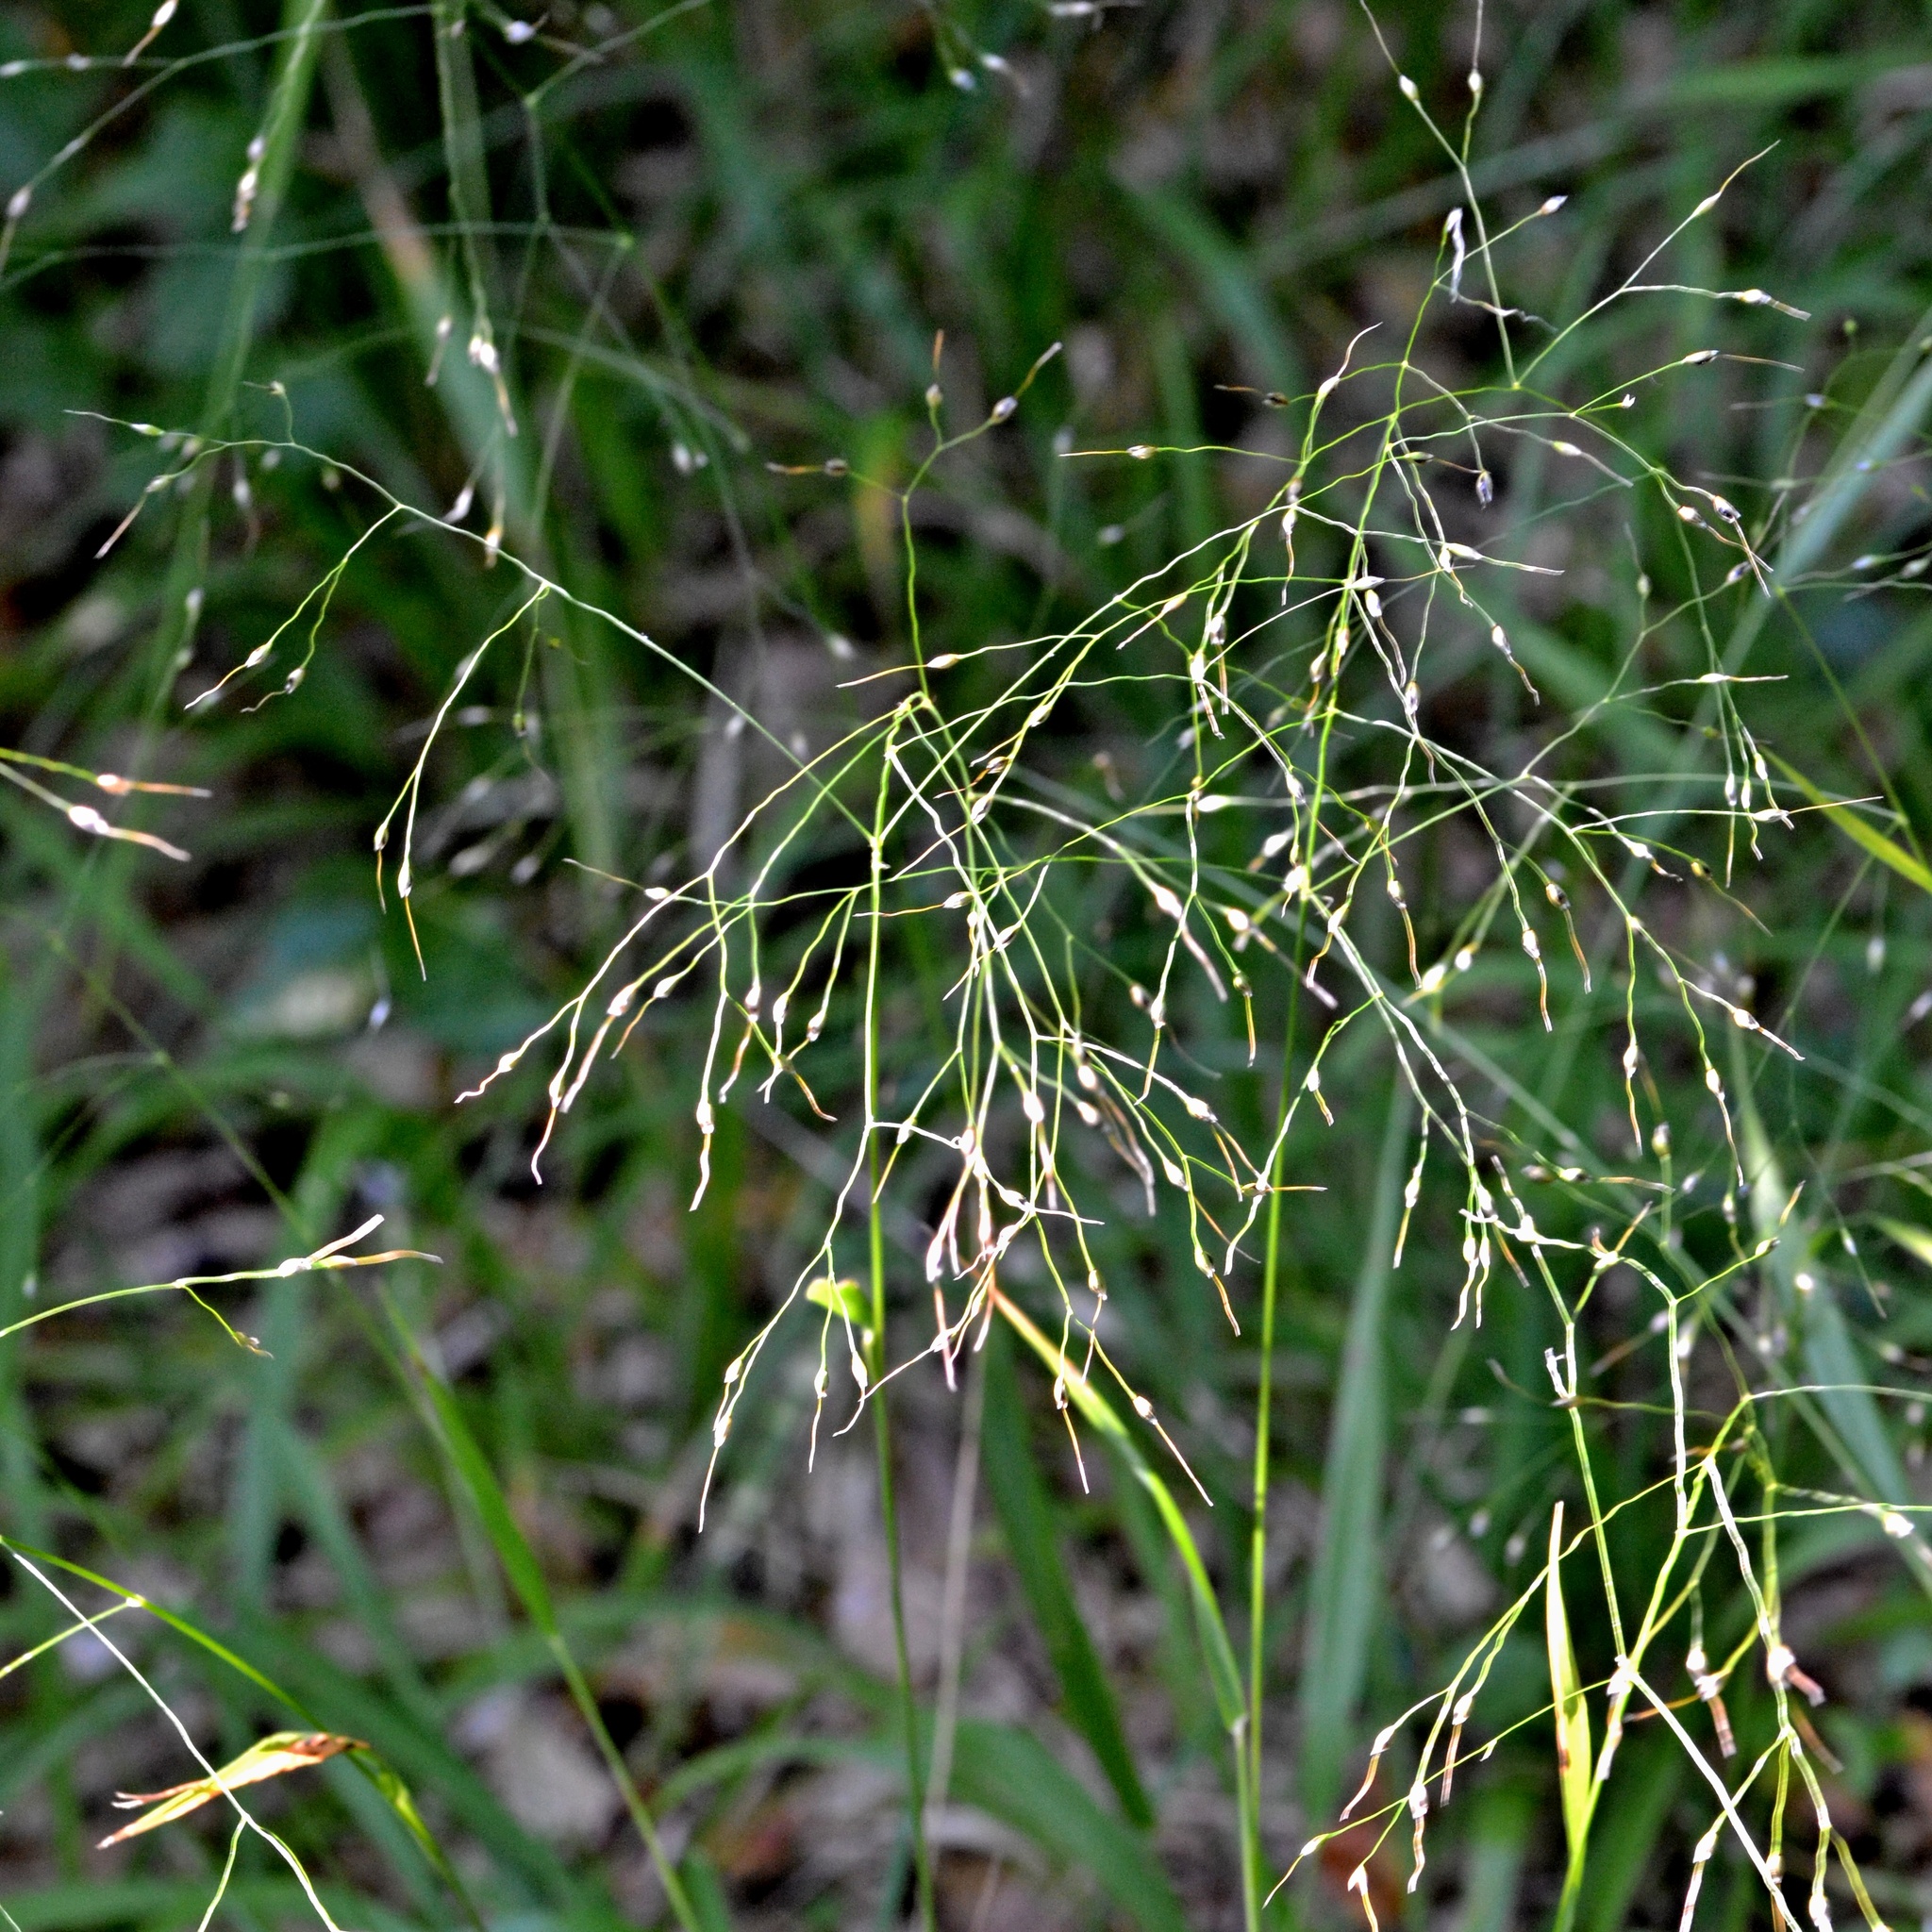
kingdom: Plantae
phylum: Tracheophyta
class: Liliopsida
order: Poales
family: Poaceae
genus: Achnatherum
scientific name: Achnatherum virescens
